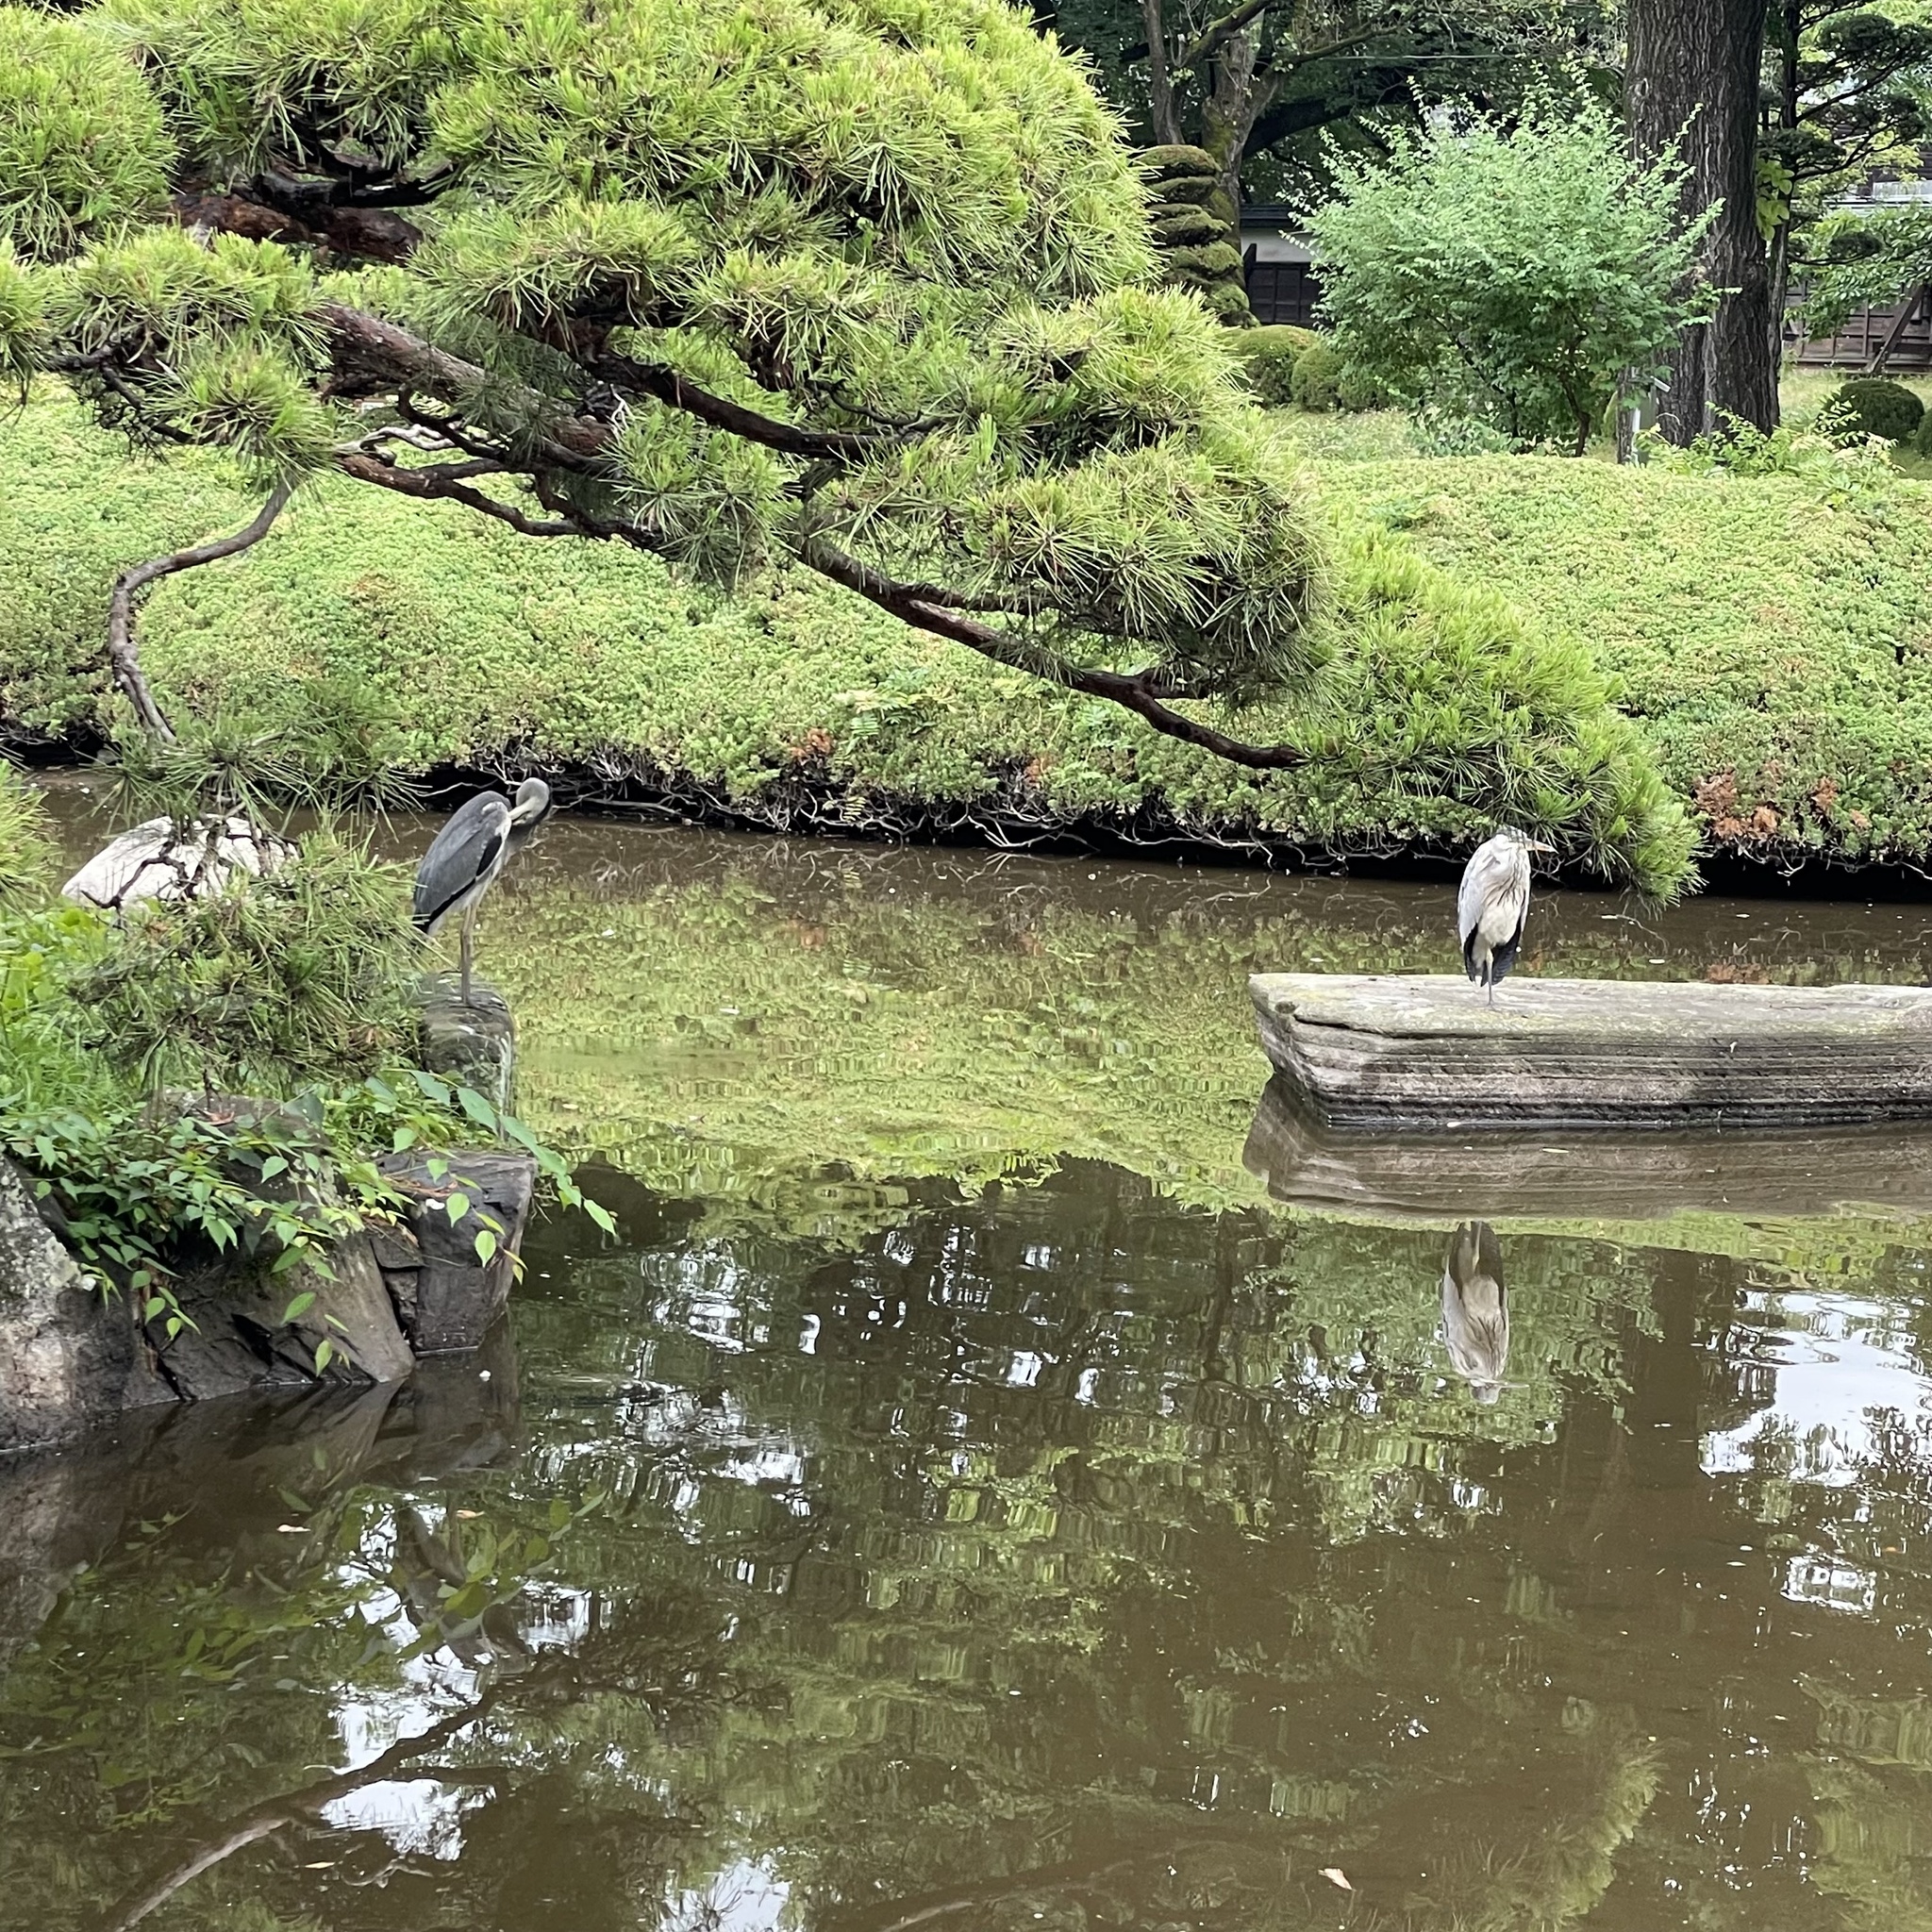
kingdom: Animalia
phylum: Chordata
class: Aves
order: Pelecaniformes
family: Ardeidae
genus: Ardea
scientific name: Ardea cinerea
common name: Grey heron
